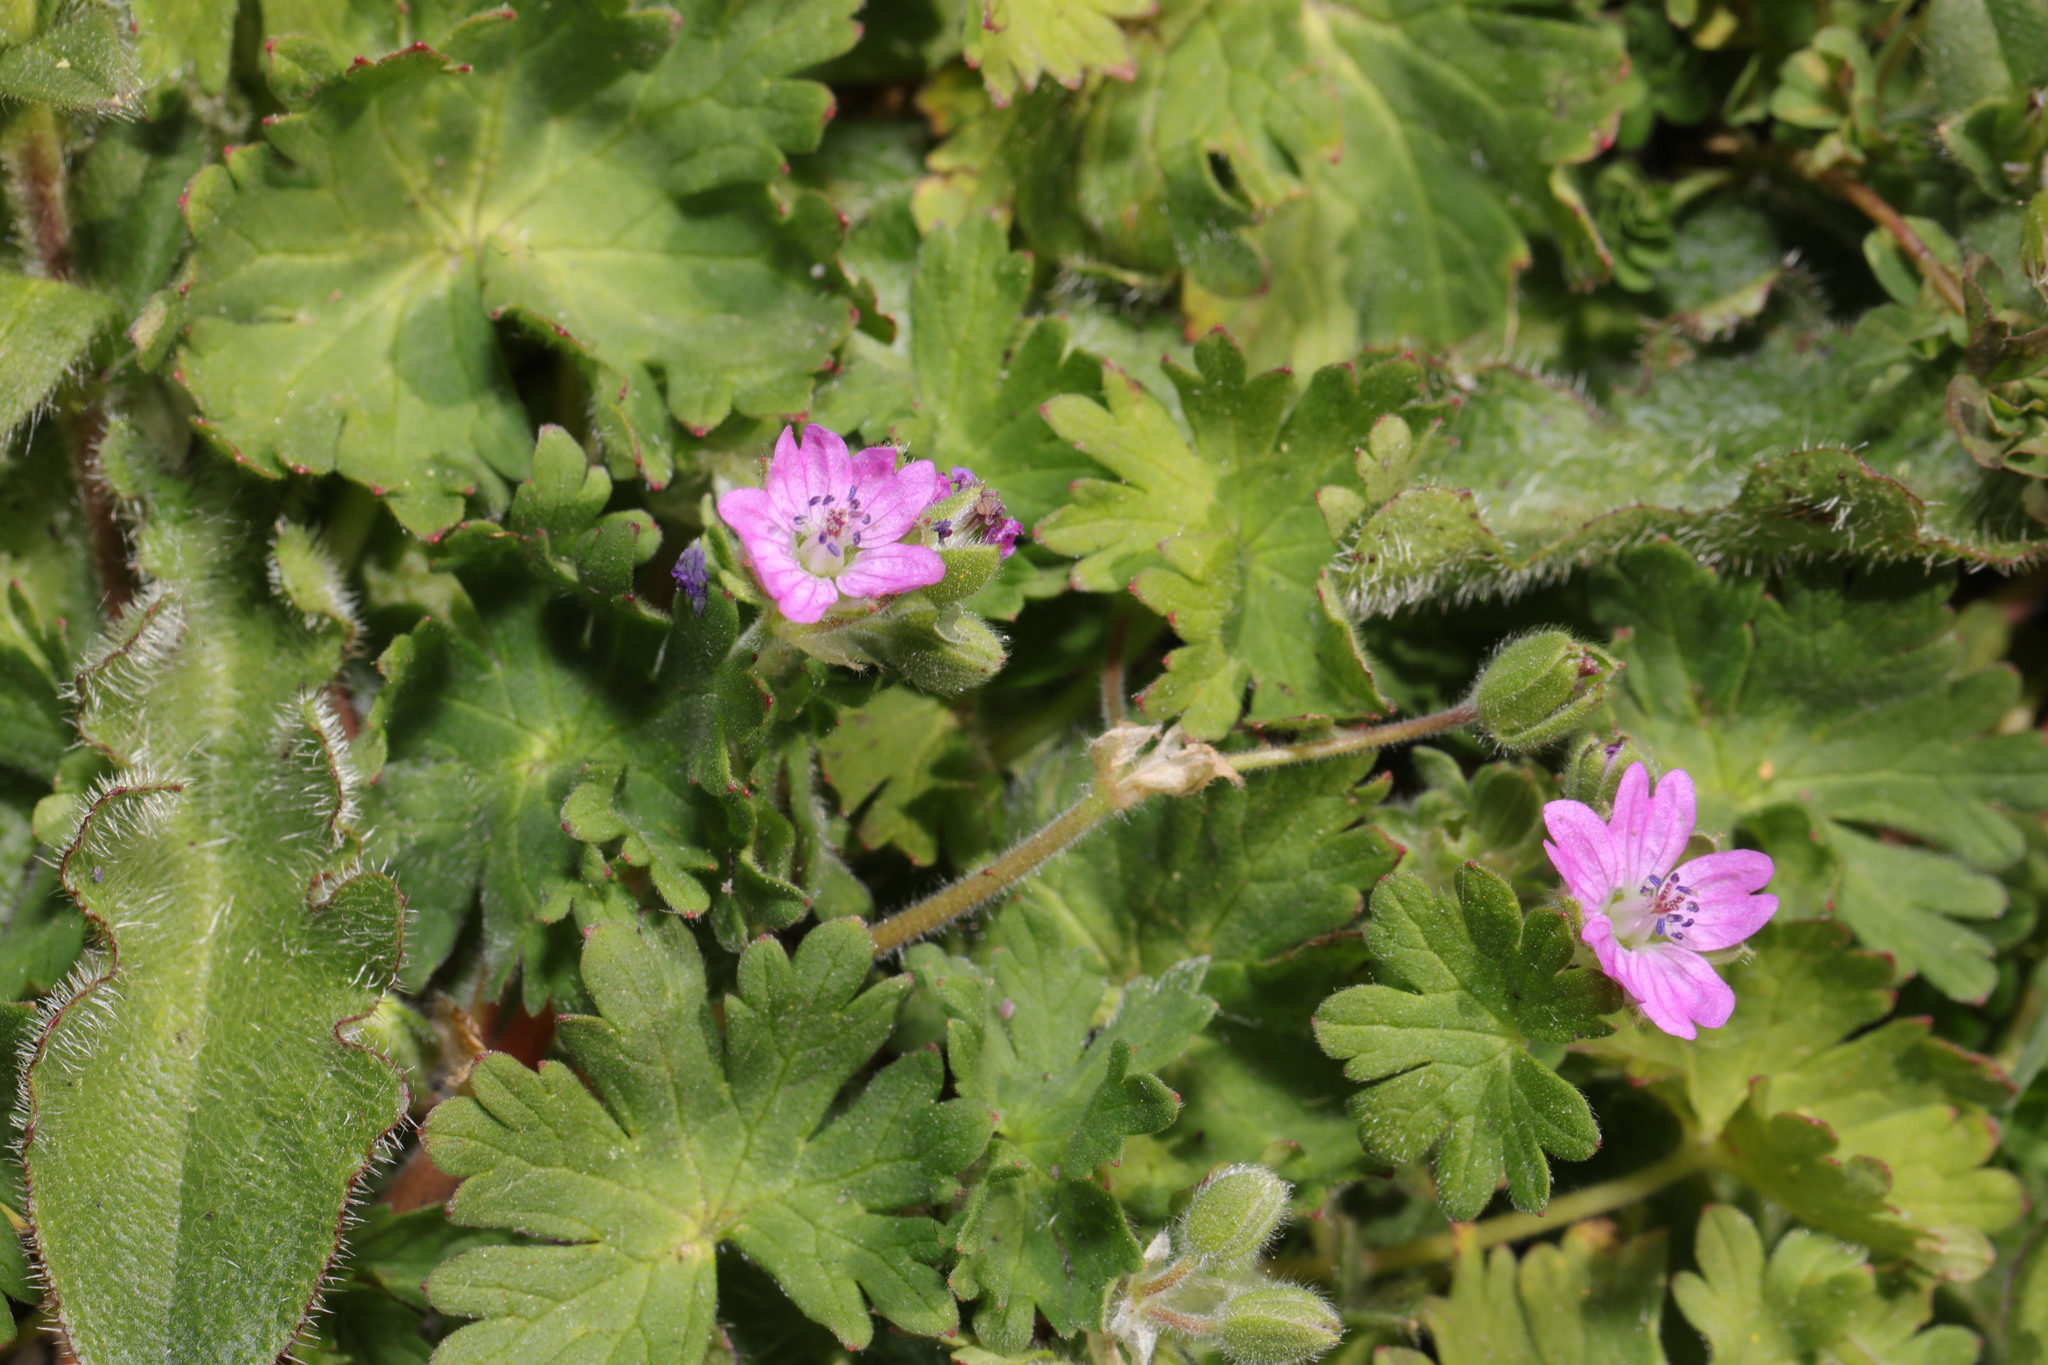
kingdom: Plantae
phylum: Tracheophyta
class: Magnoliopsida
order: Geraniales
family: Geraniaceae
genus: Geranium
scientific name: Geranium molle
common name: Dove's-foot crane's-bill
